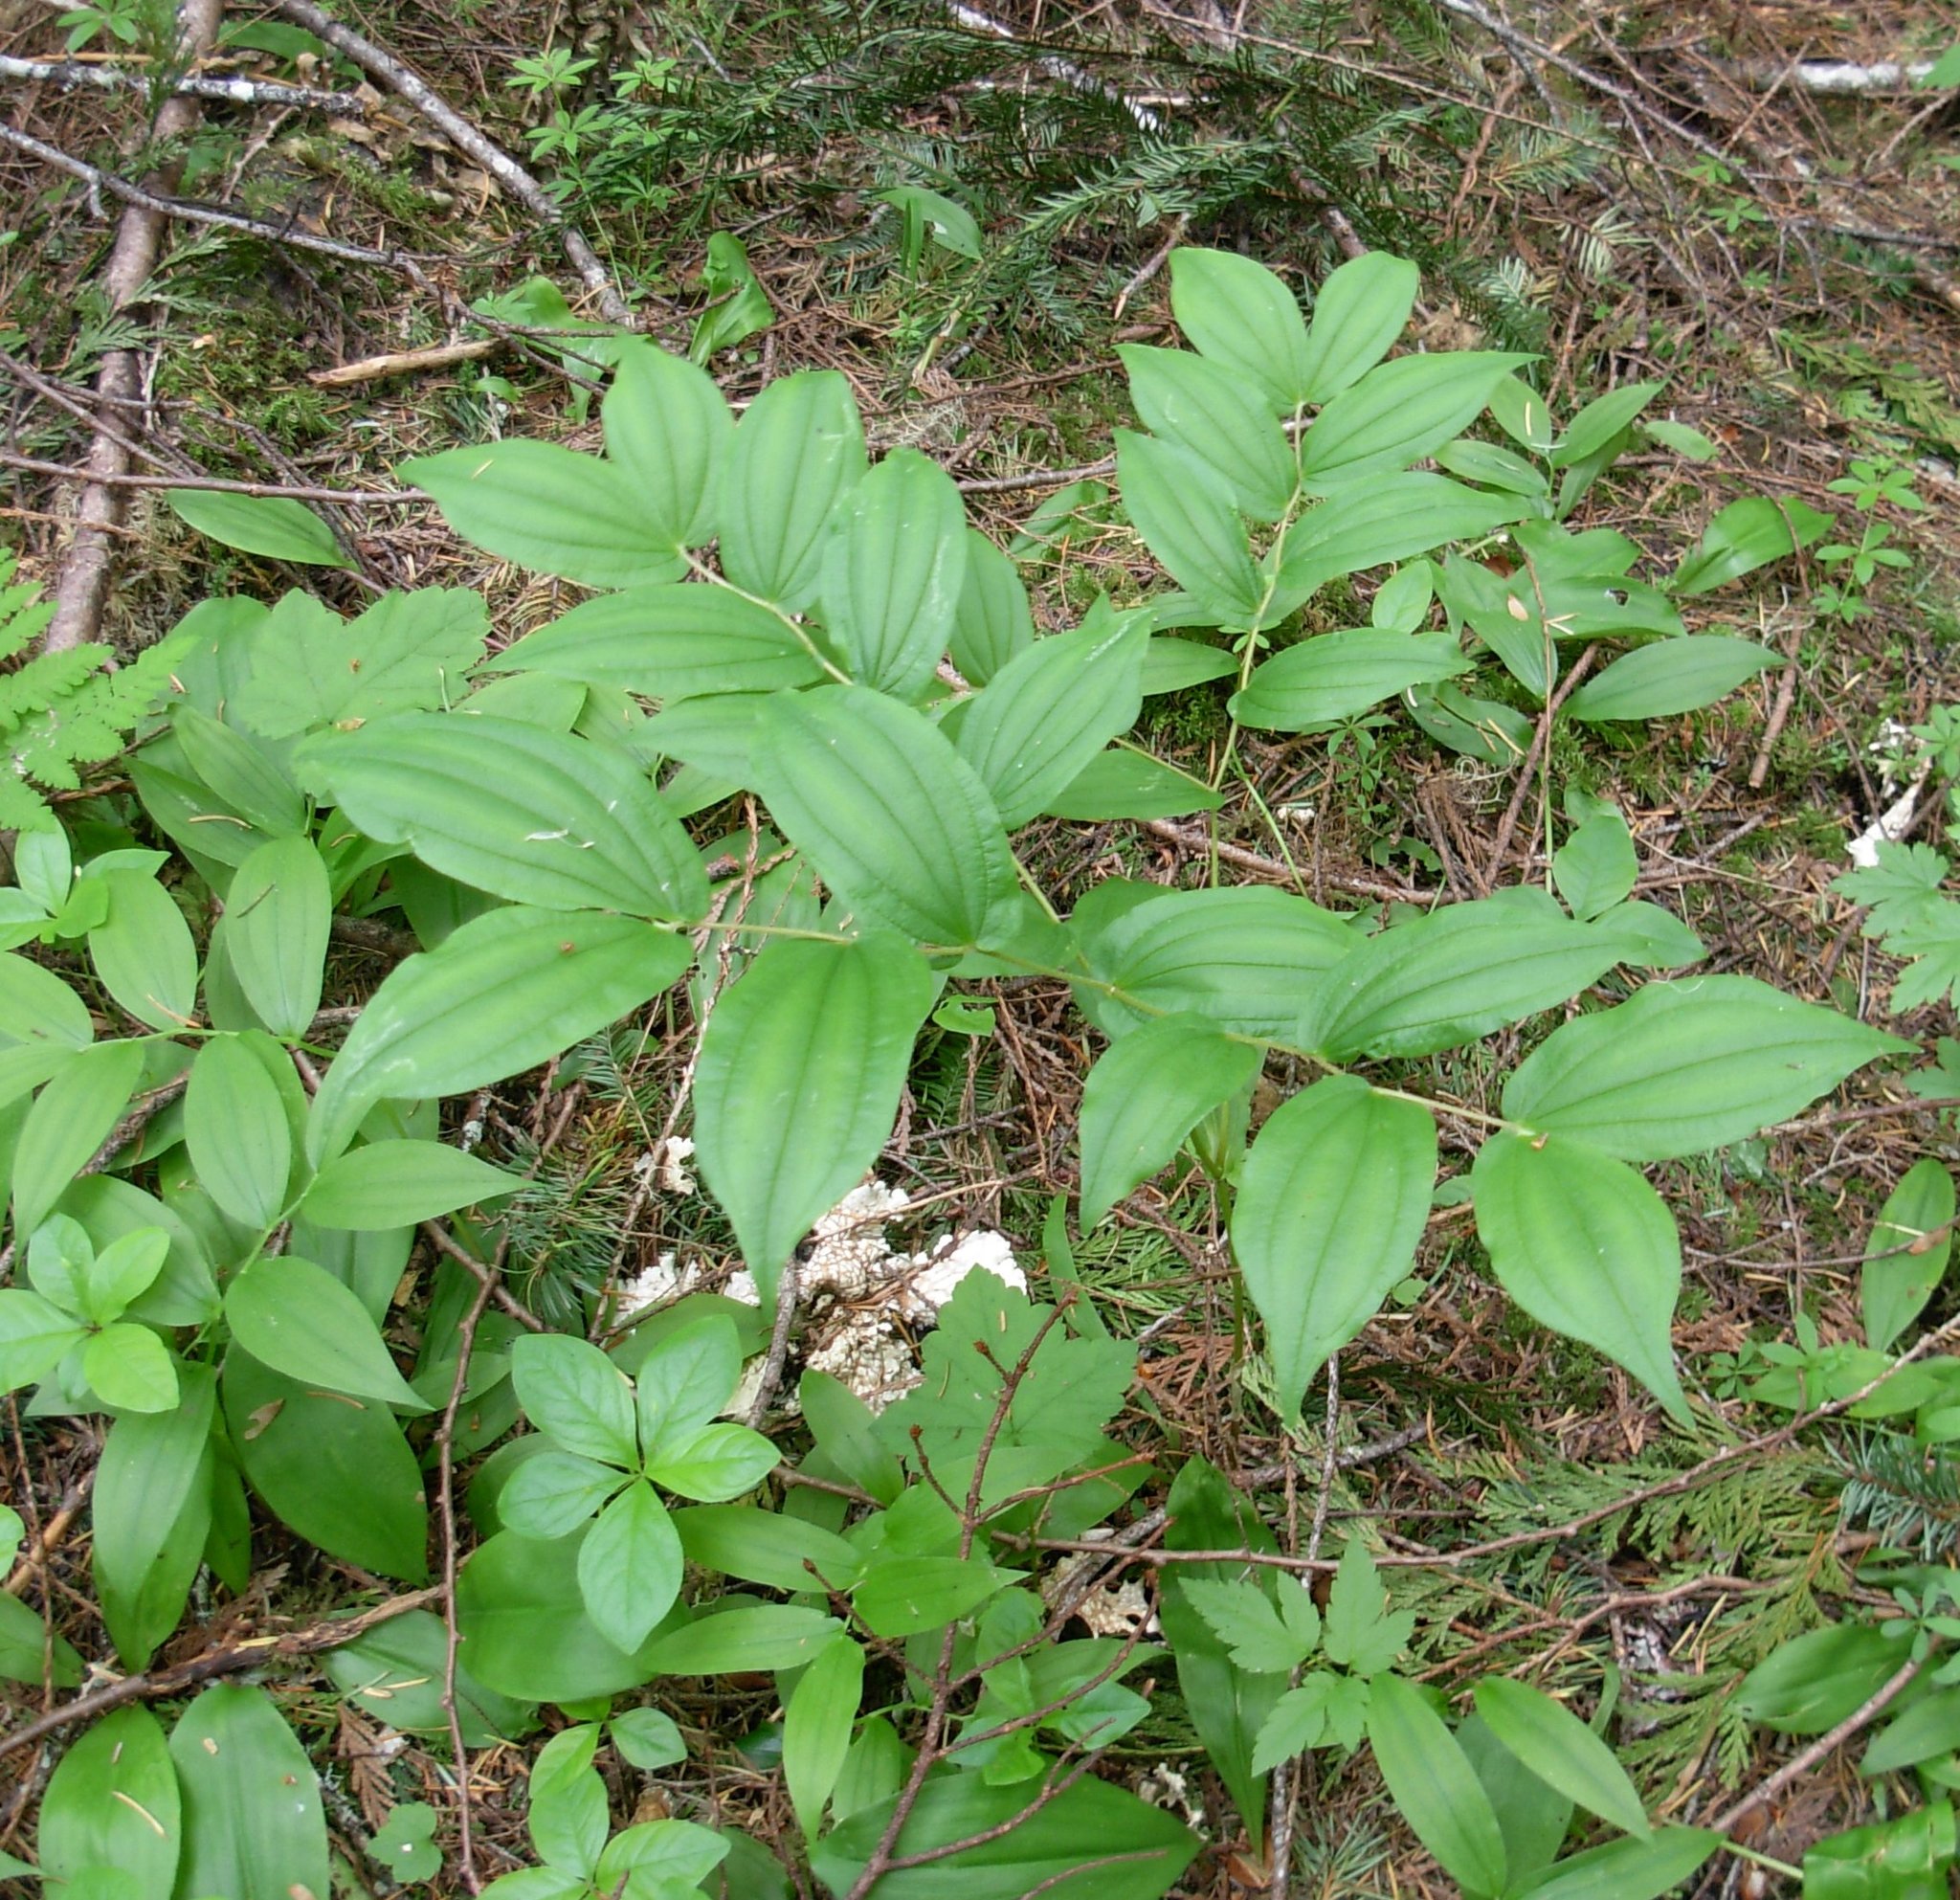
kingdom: Plantae
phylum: Tracheophyta
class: Liliopsida
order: Liliales
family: Liliaceae
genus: Prosartes
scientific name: Prosartes hookeri
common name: Fairy-bells
